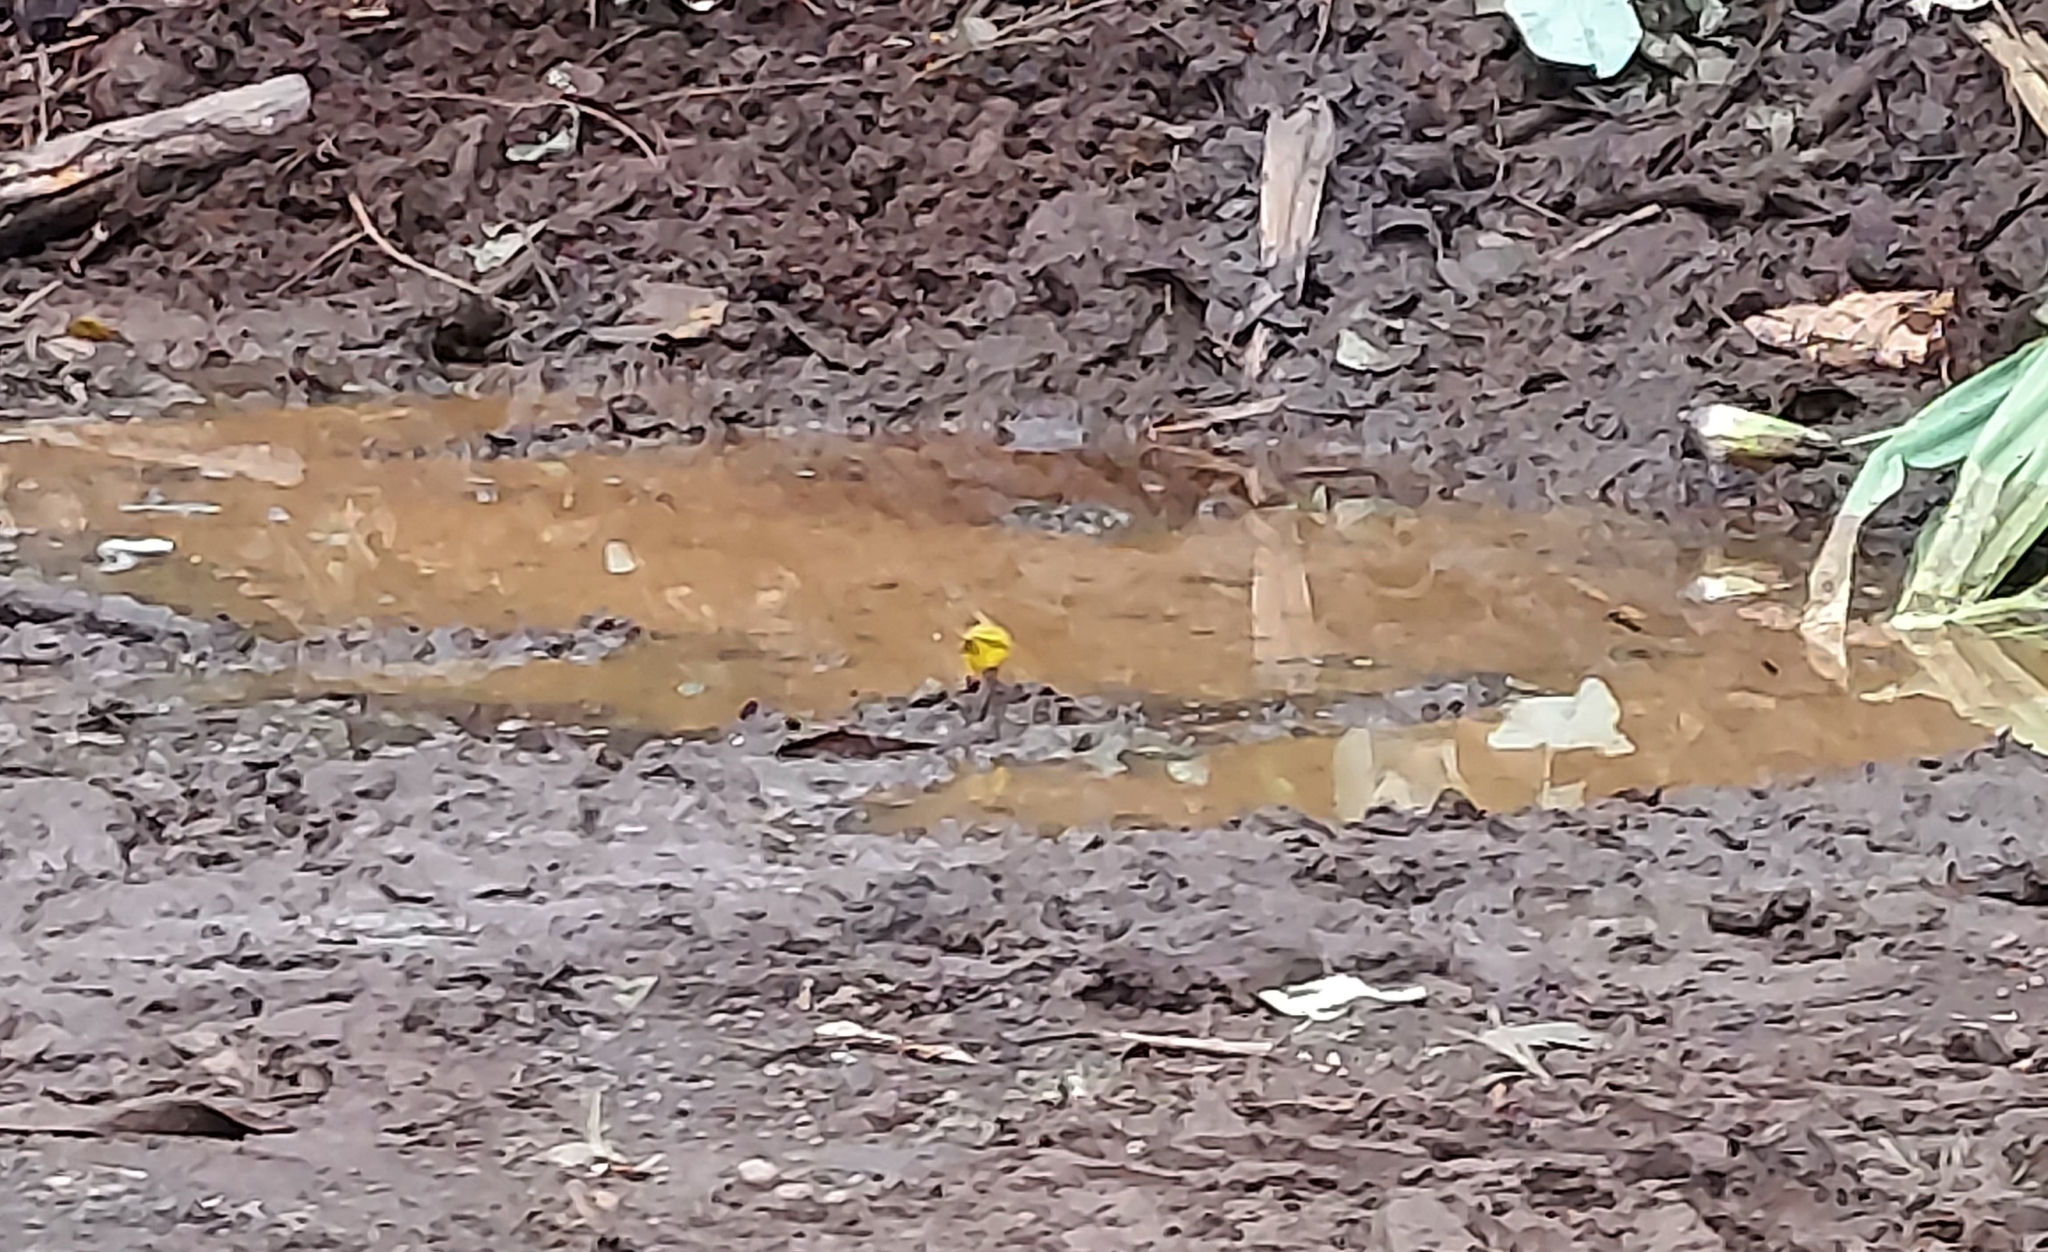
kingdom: Animalia
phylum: Chordata
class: Aves
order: Passeriformes
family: Thraupidae
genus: Sicalis
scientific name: Sicalis flaveola
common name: Saffron finch
